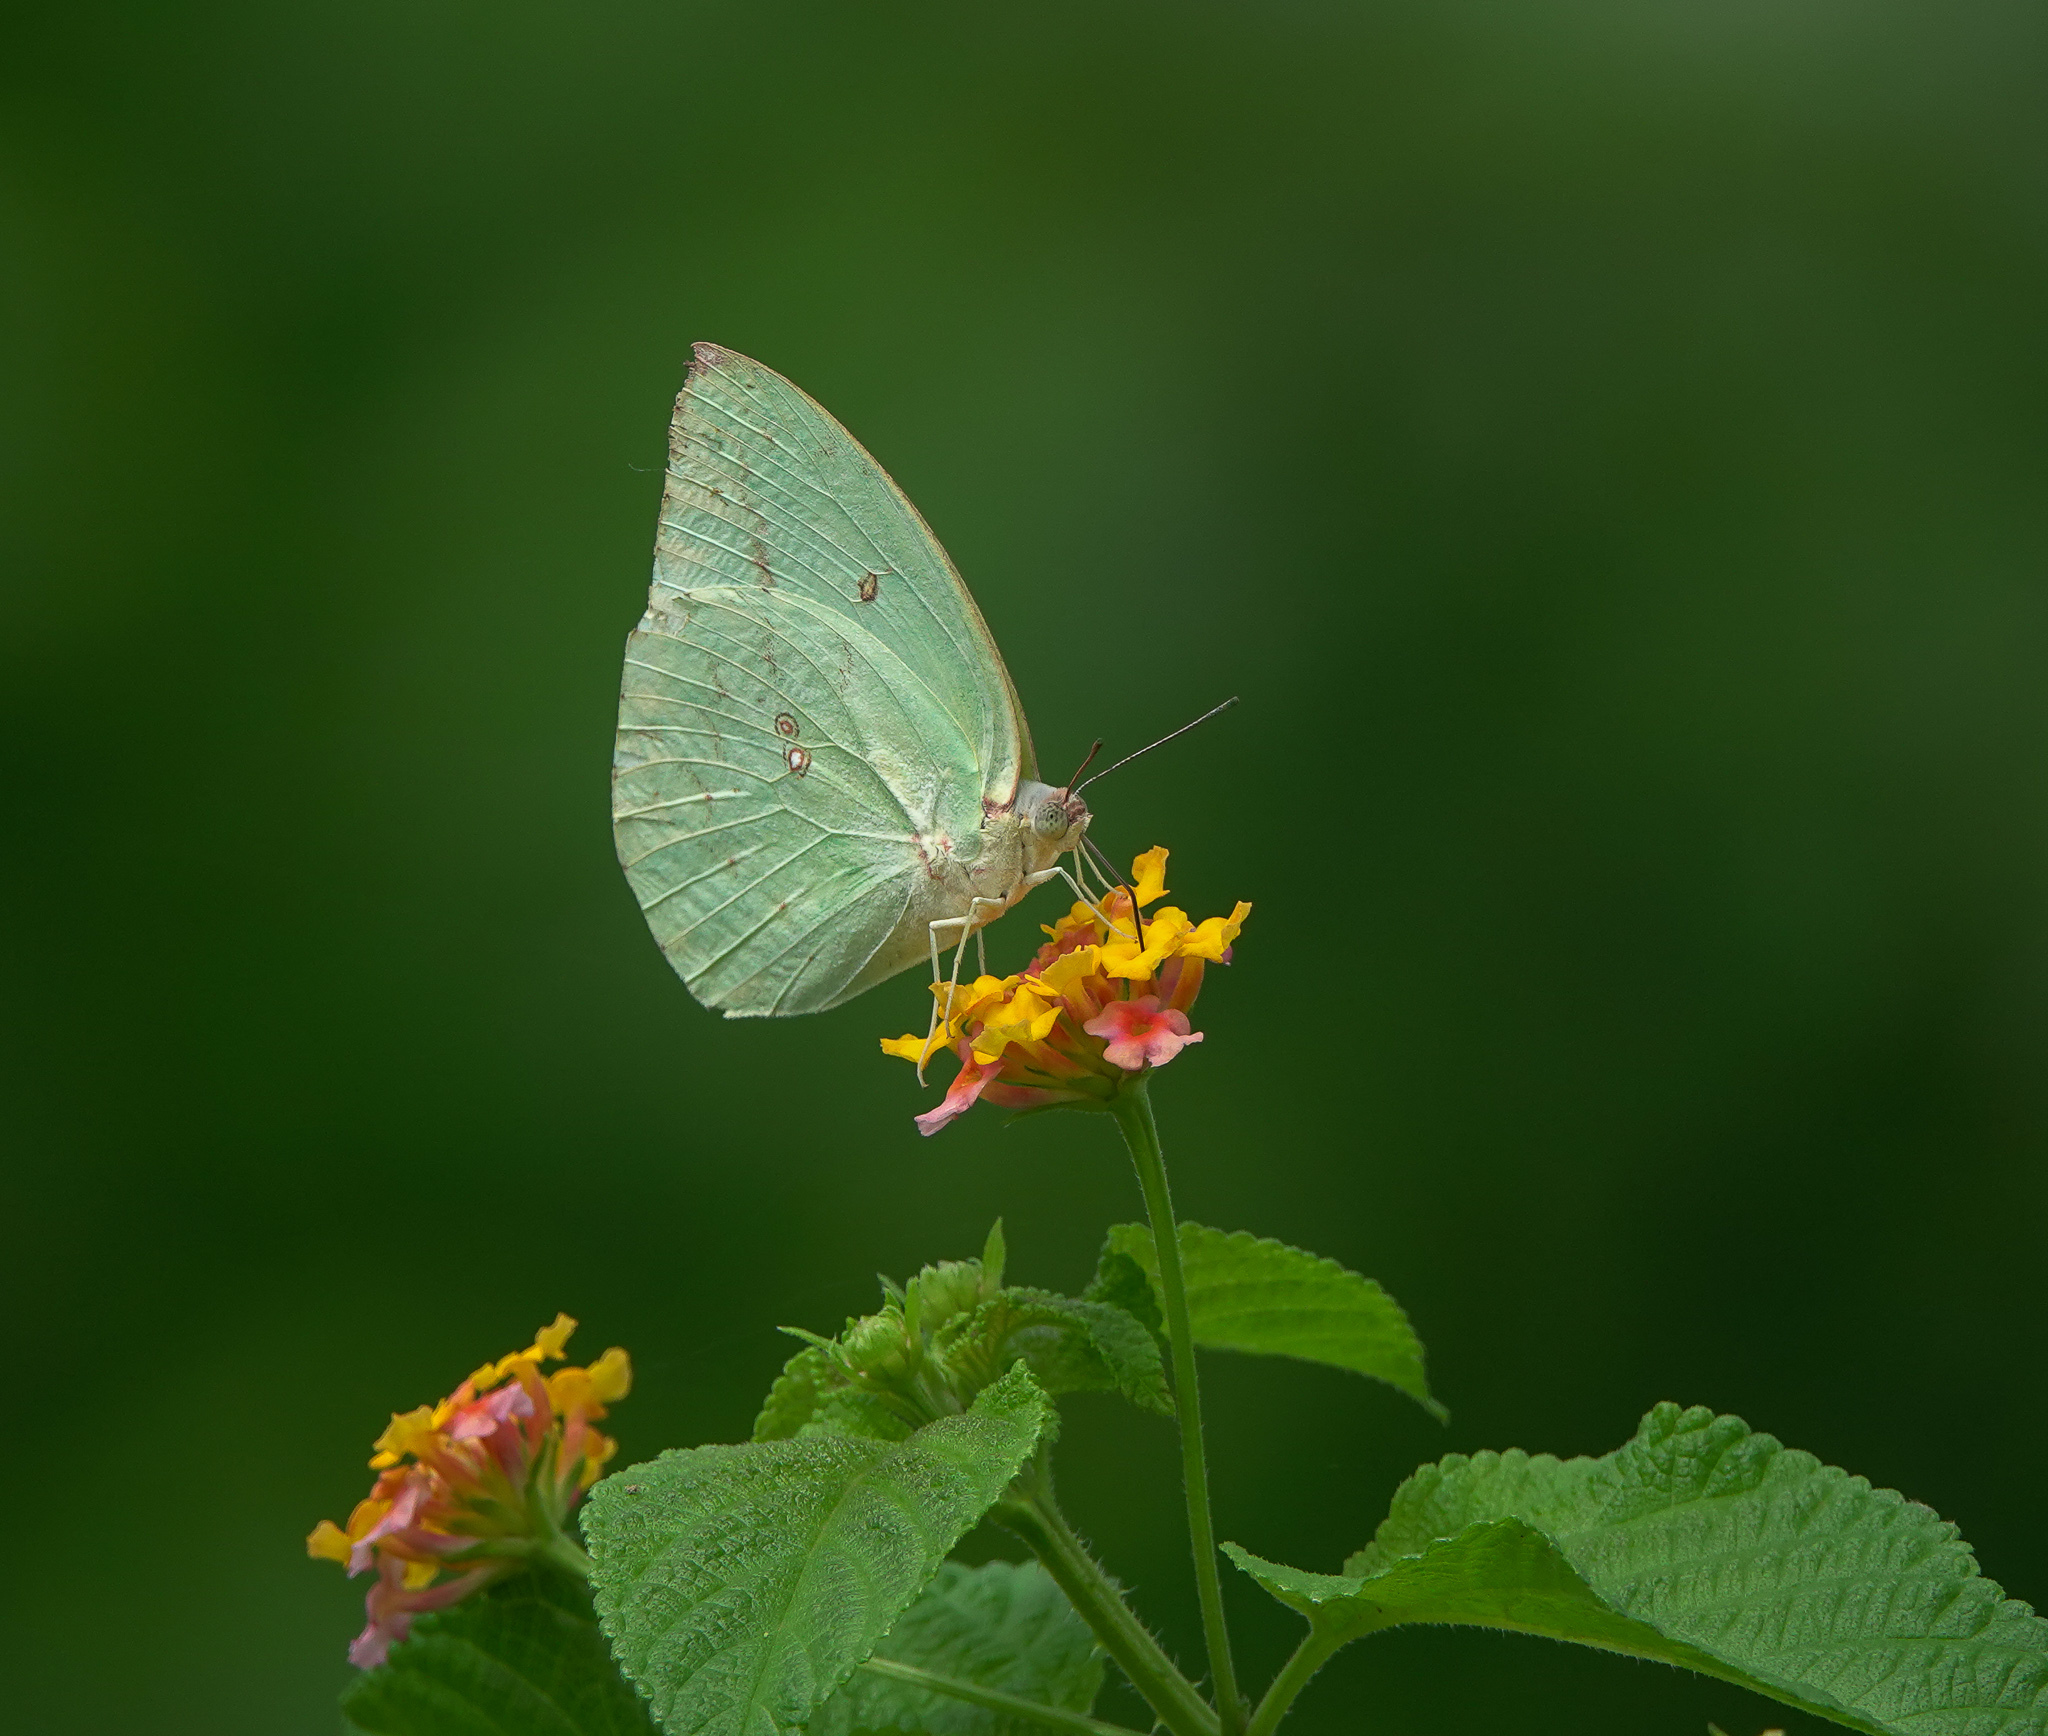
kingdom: Animalia
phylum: Arthropoda
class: Insecta
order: Lepidoptera
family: Pieridae
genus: Catopsilia
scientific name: Catopsilia pomona
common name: Common emigrant
